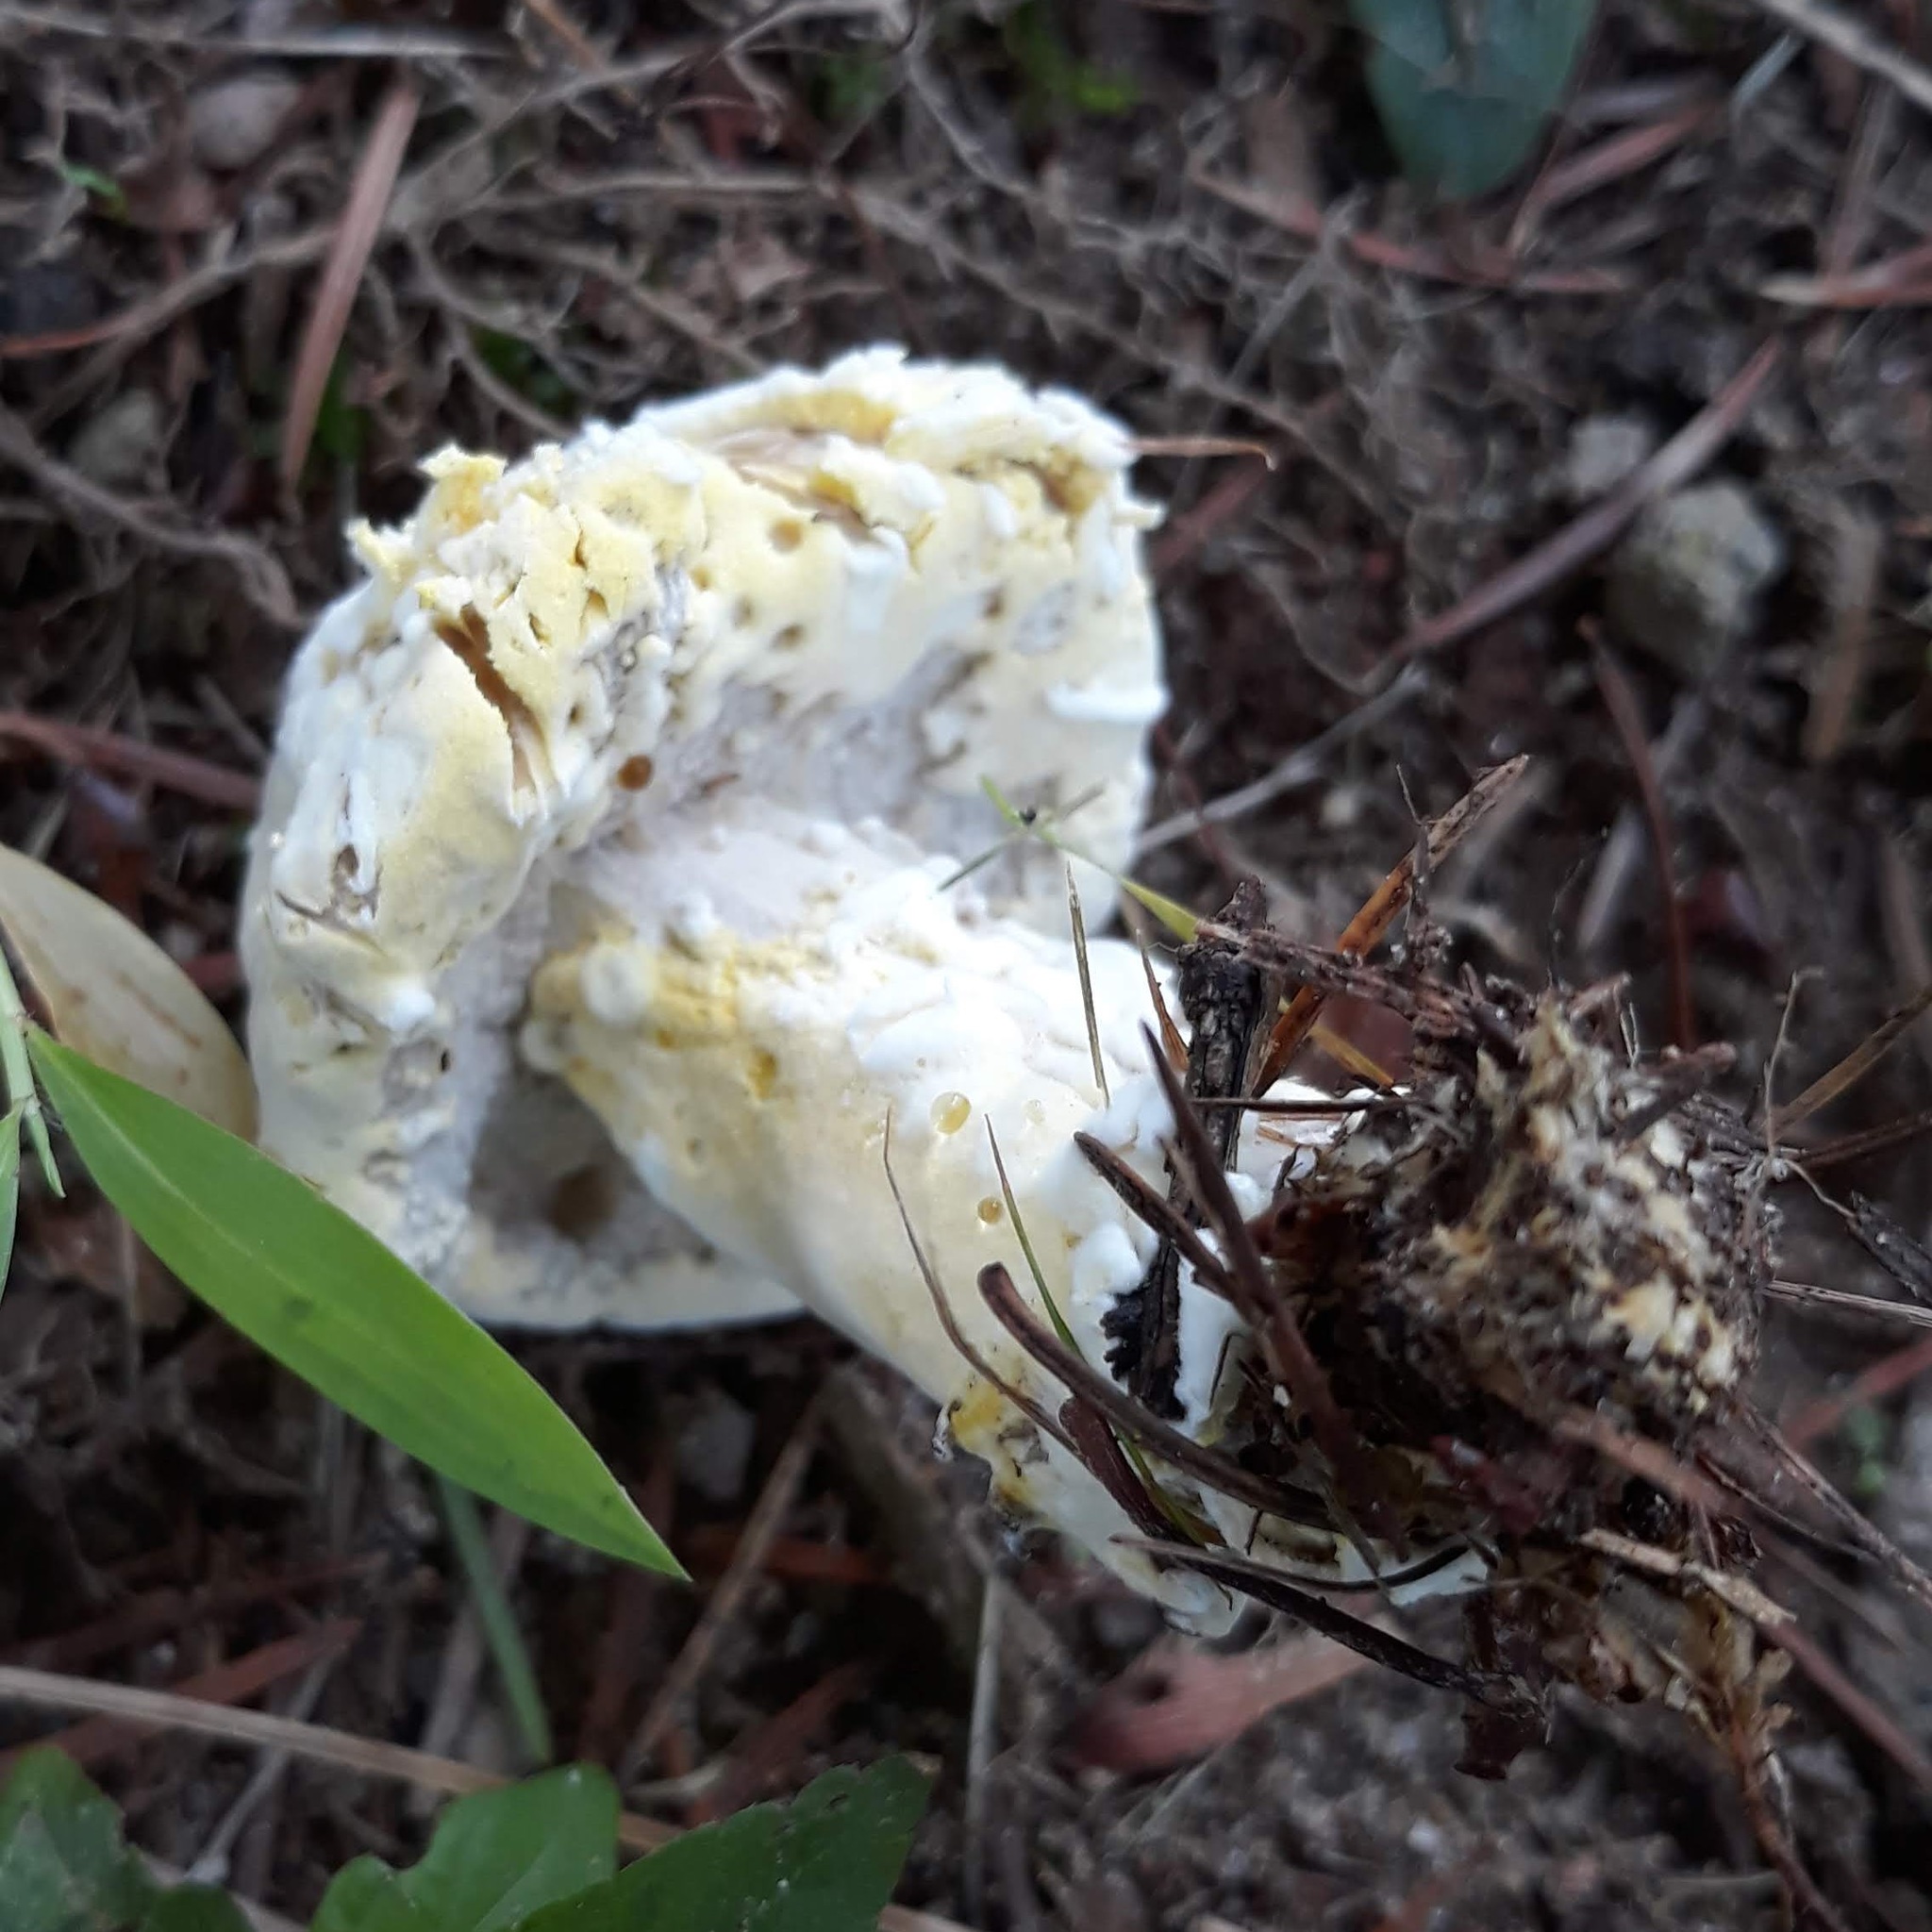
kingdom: Fungi
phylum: Ascomycota
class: Sordariomycetes
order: Hypocreales
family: Hypocreaceae
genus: Hypomyces
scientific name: Hypomyces chrysospermus
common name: Bolete mould
